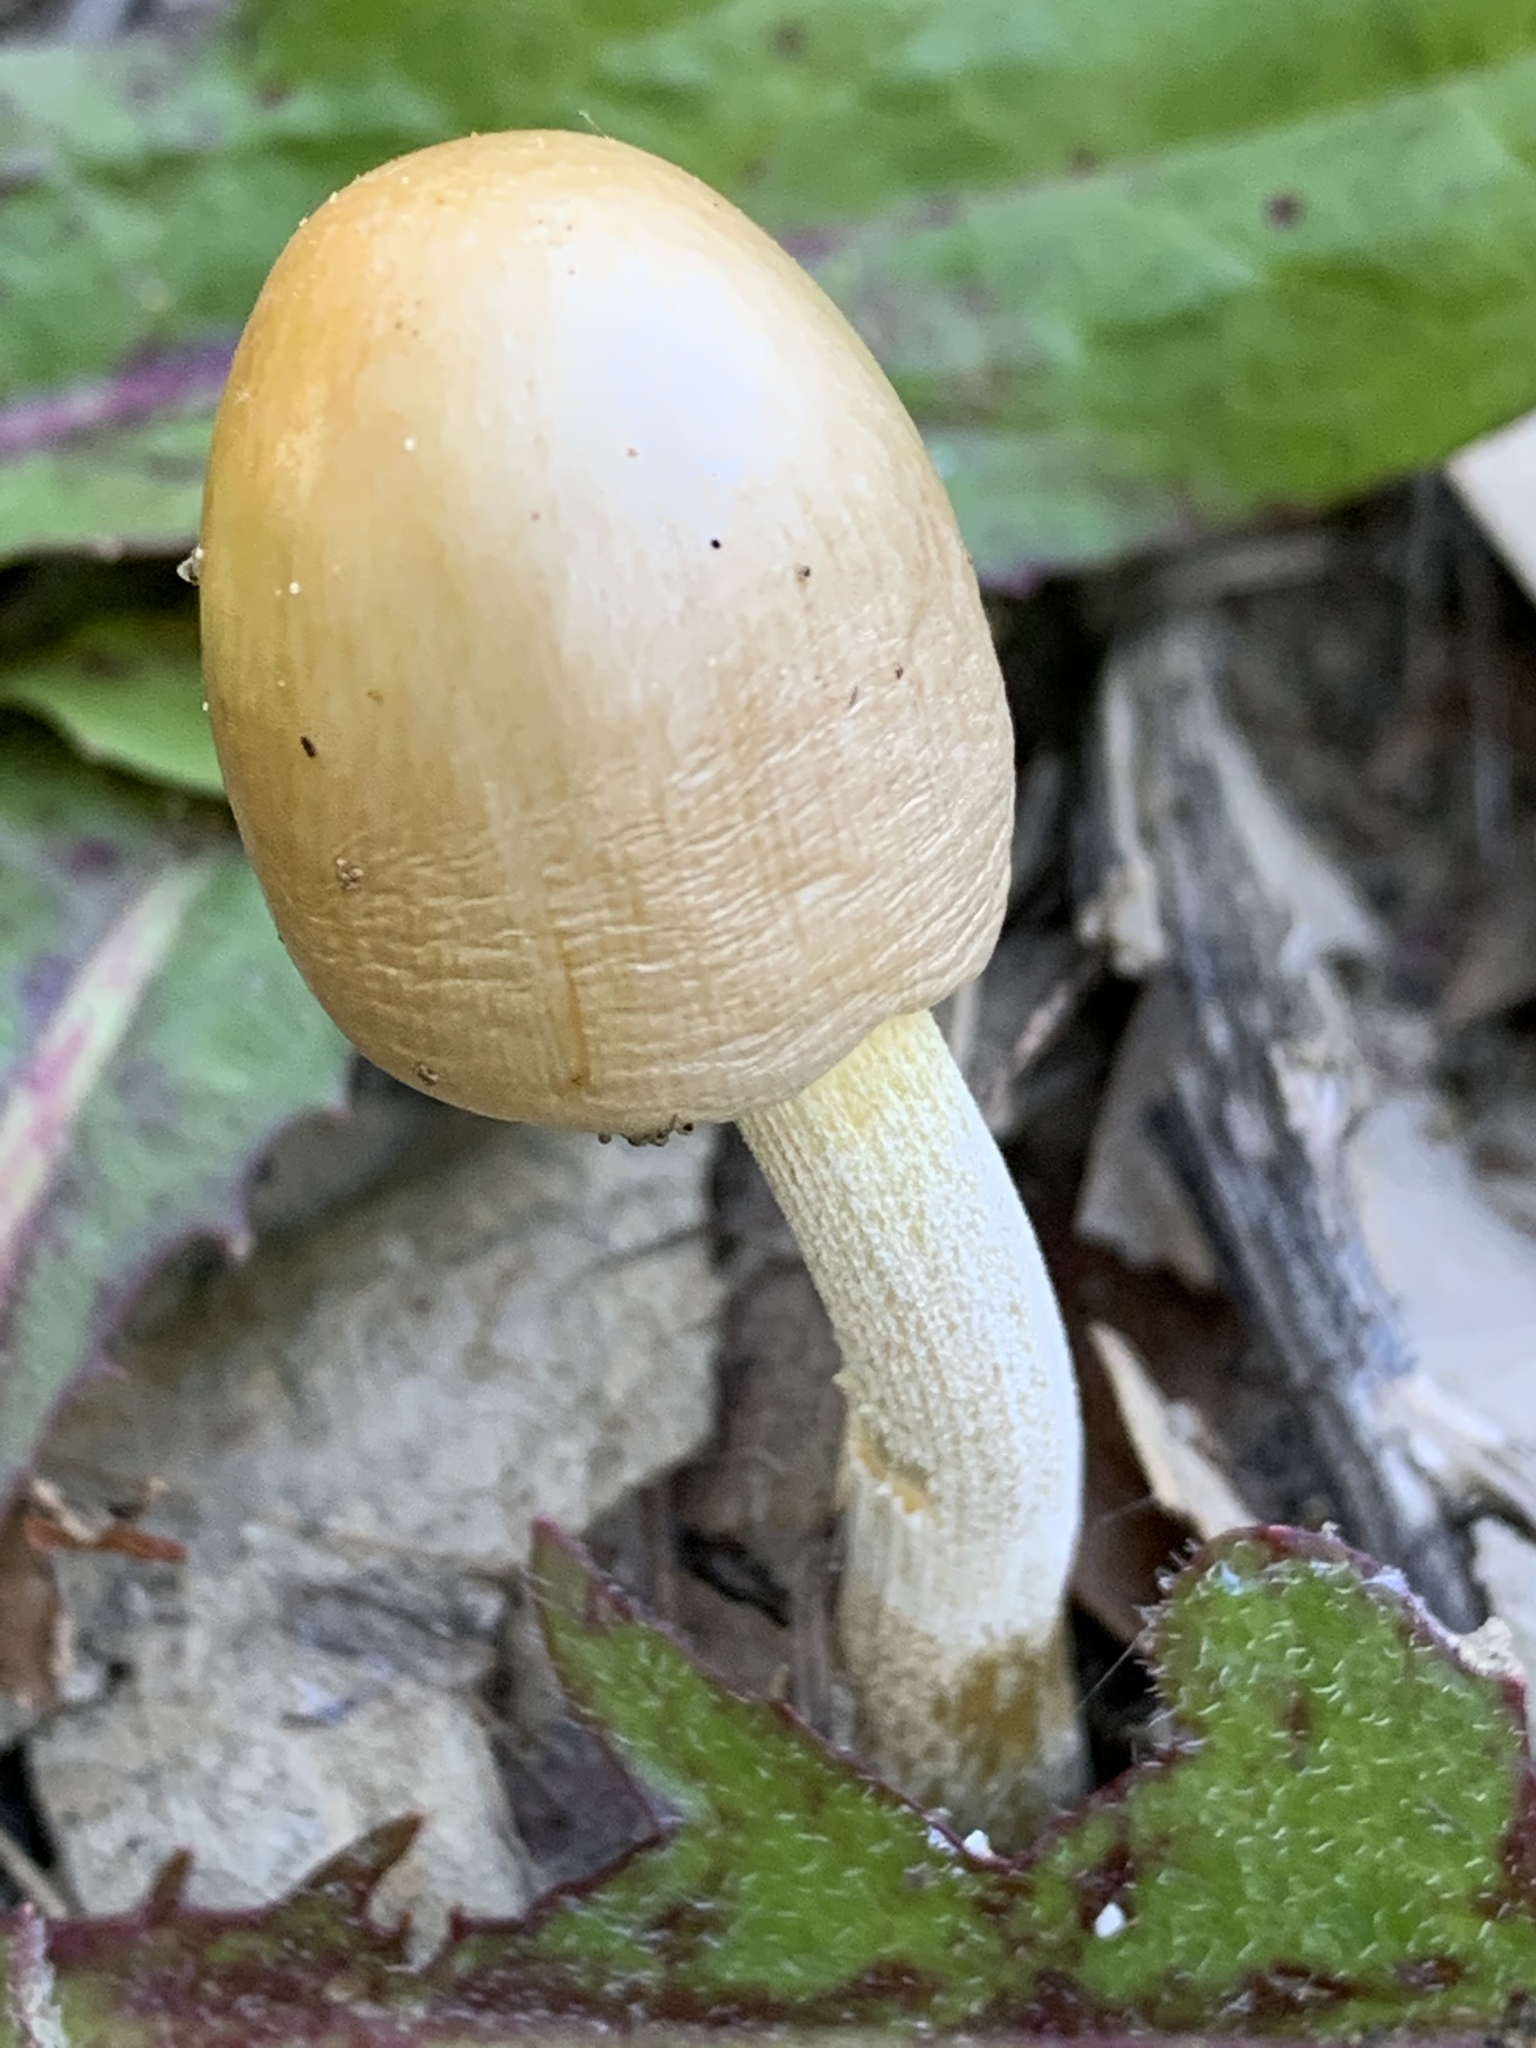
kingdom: Fungi
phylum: Basidiomycota
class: Agaricomycetes
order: Agaricales
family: Bolbitiaceae
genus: Bolbitius
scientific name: Bolbitius titubans
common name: Yellow fieldcap
